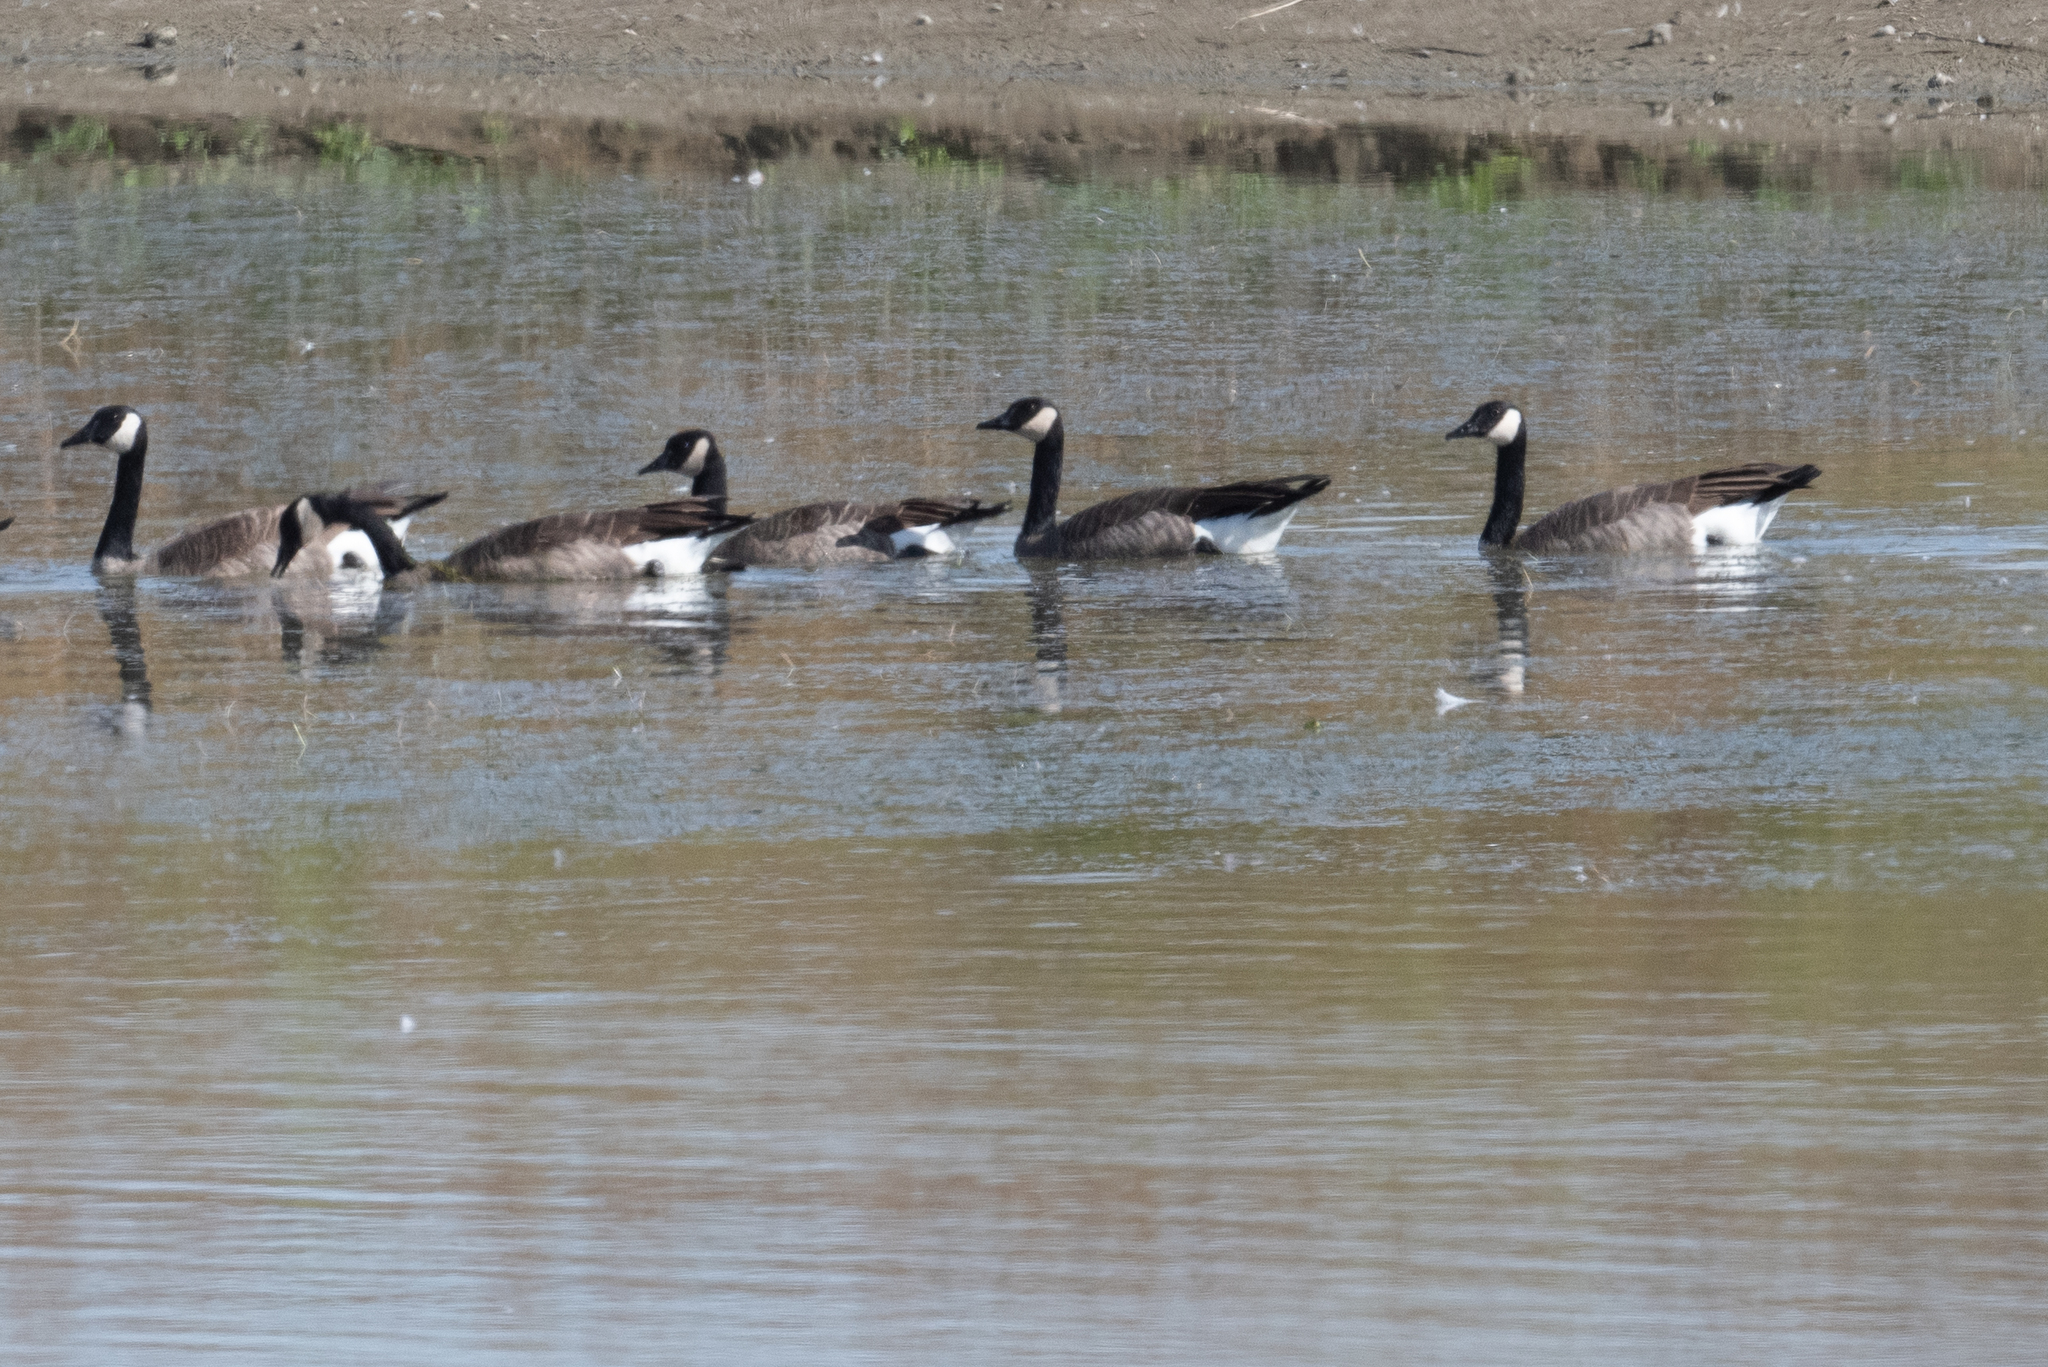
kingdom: Animalia
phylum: Chordata
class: Aves
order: Anseriformes
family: Anatidae
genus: Branta
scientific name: Branta canadensis
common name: Canada goose
